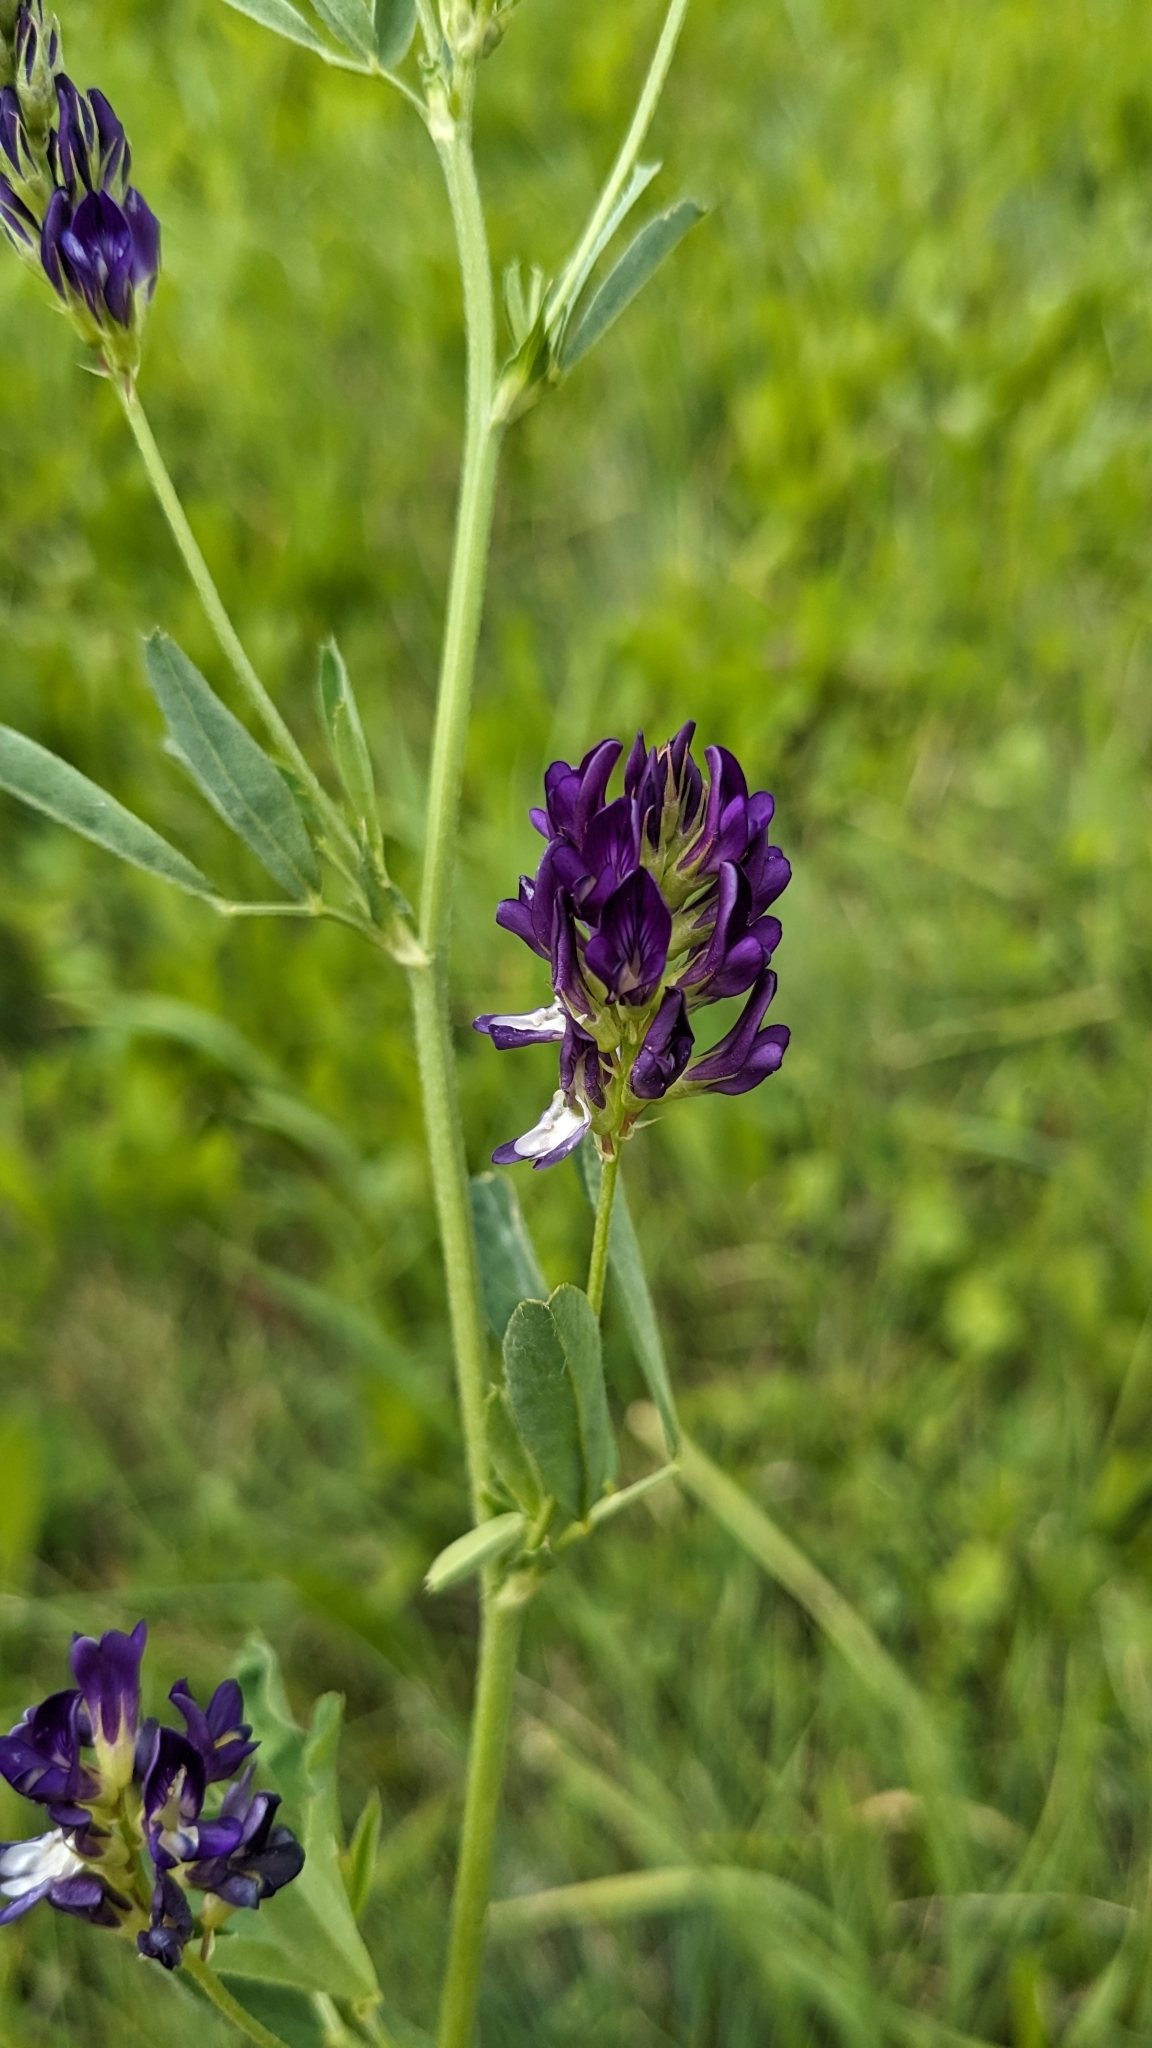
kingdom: Plantae
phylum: Tracheophyta
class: Magnoliopsida
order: Fabales
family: Fabaceae
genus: Medicago
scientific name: Medicago sativa
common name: Alfalfa
